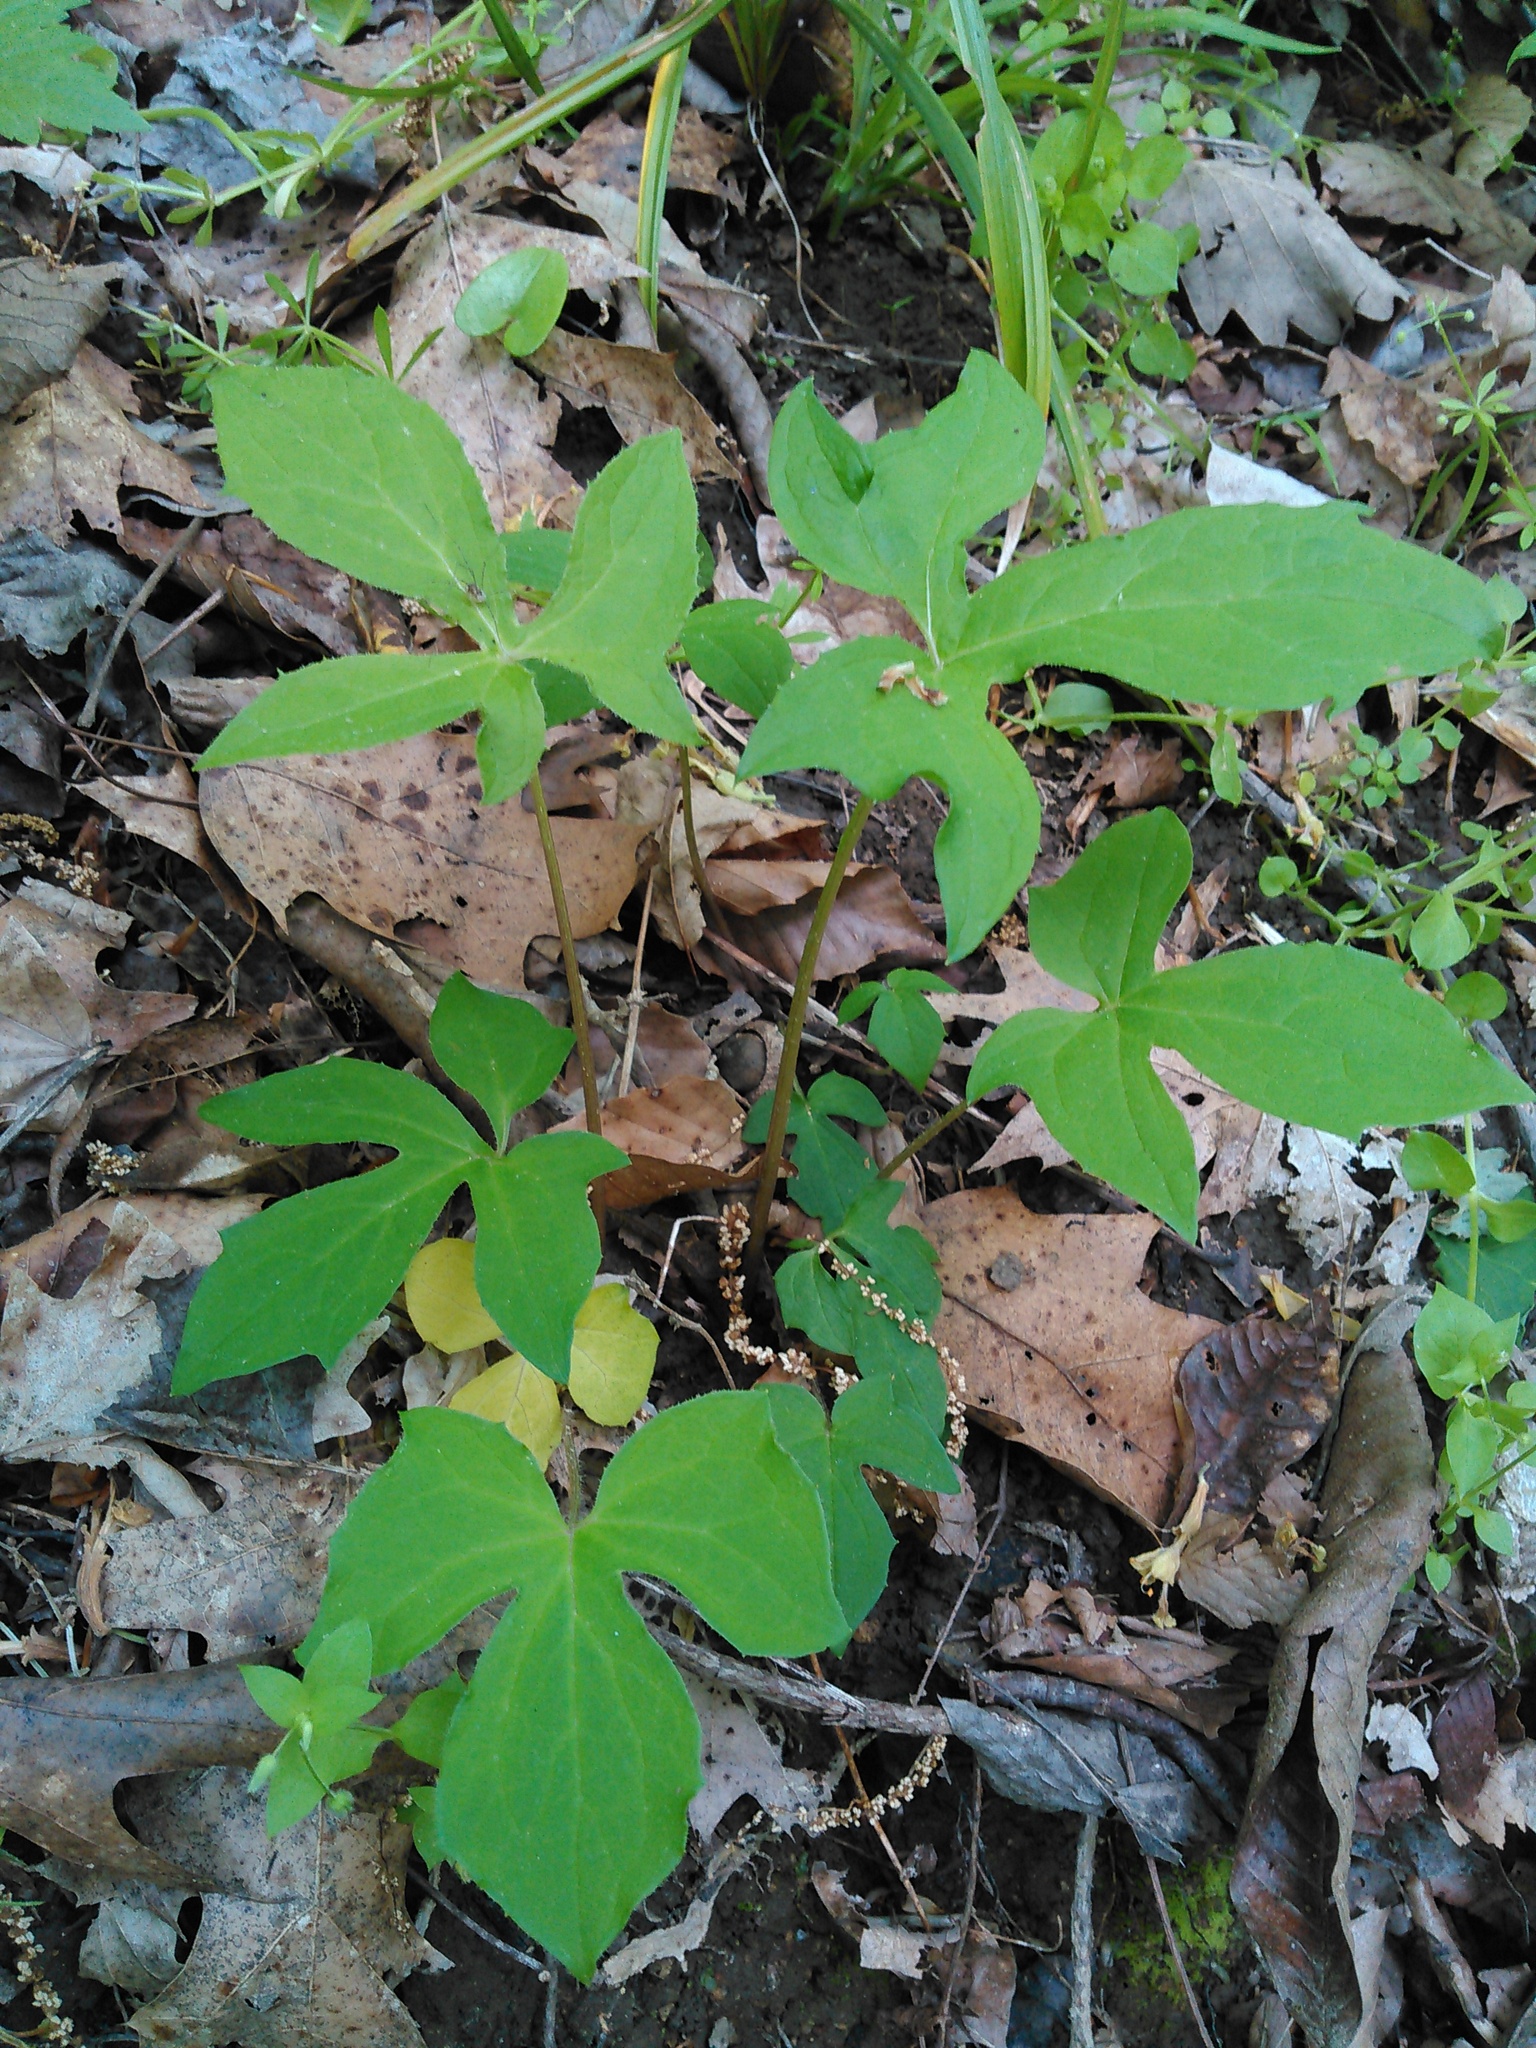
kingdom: Plantae
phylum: Tracheophyta
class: Magnoliopsida
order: Asterales
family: Asteraceae
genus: Nabalus
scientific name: Nabalus trifoliolatus
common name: Gall-of-the-earth
